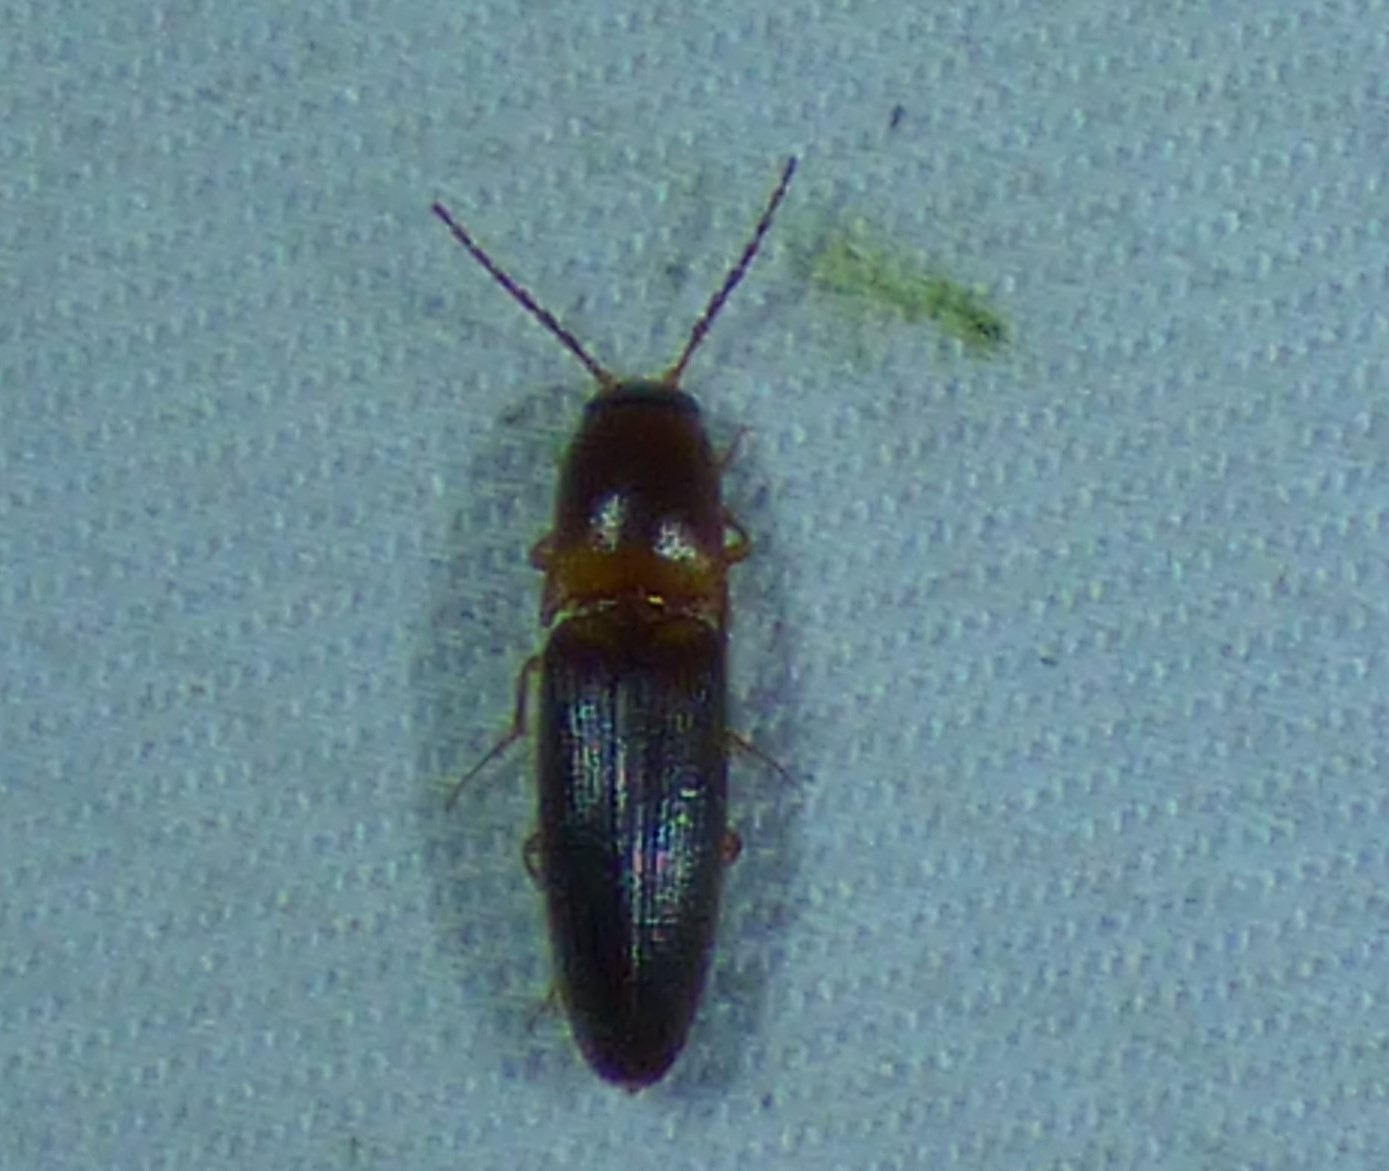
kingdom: Animalia
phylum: Arthropoda
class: Insecta
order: Coleoptera
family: Elateridae
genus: Megapenthes
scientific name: Megapenthes
